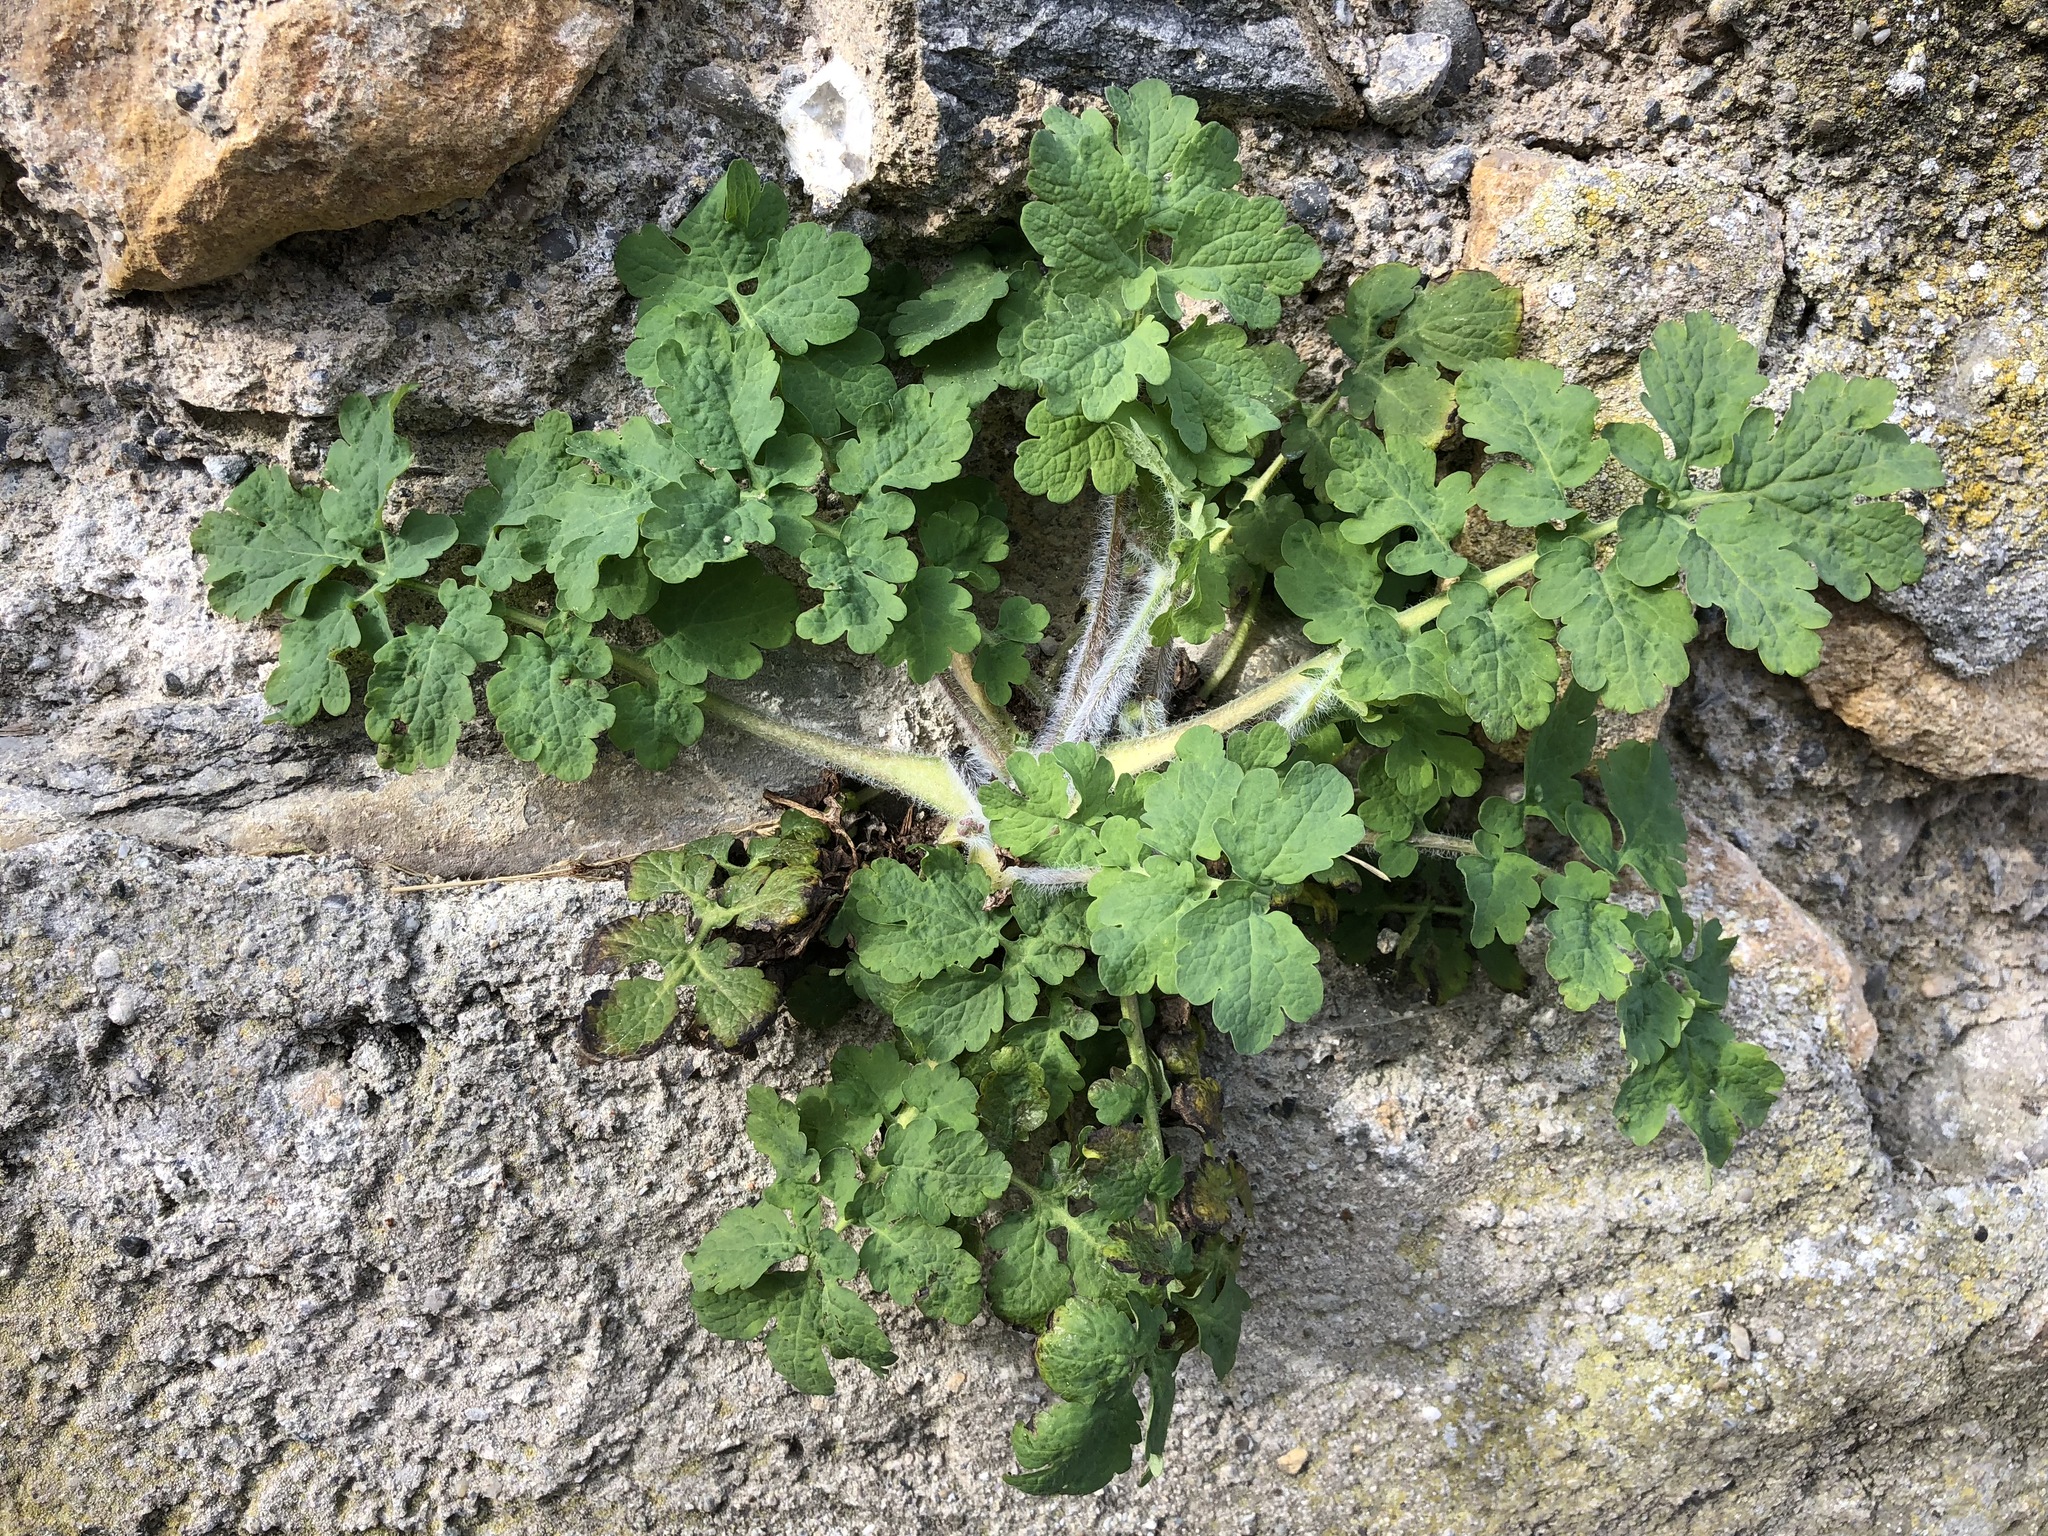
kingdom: Plantae
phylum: Tracheophyta
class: Magnoliopsida
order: Ranunculales
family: Papaveraceae
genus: Chelidonium
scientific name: Chelidonium majus
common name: Greater celandine
